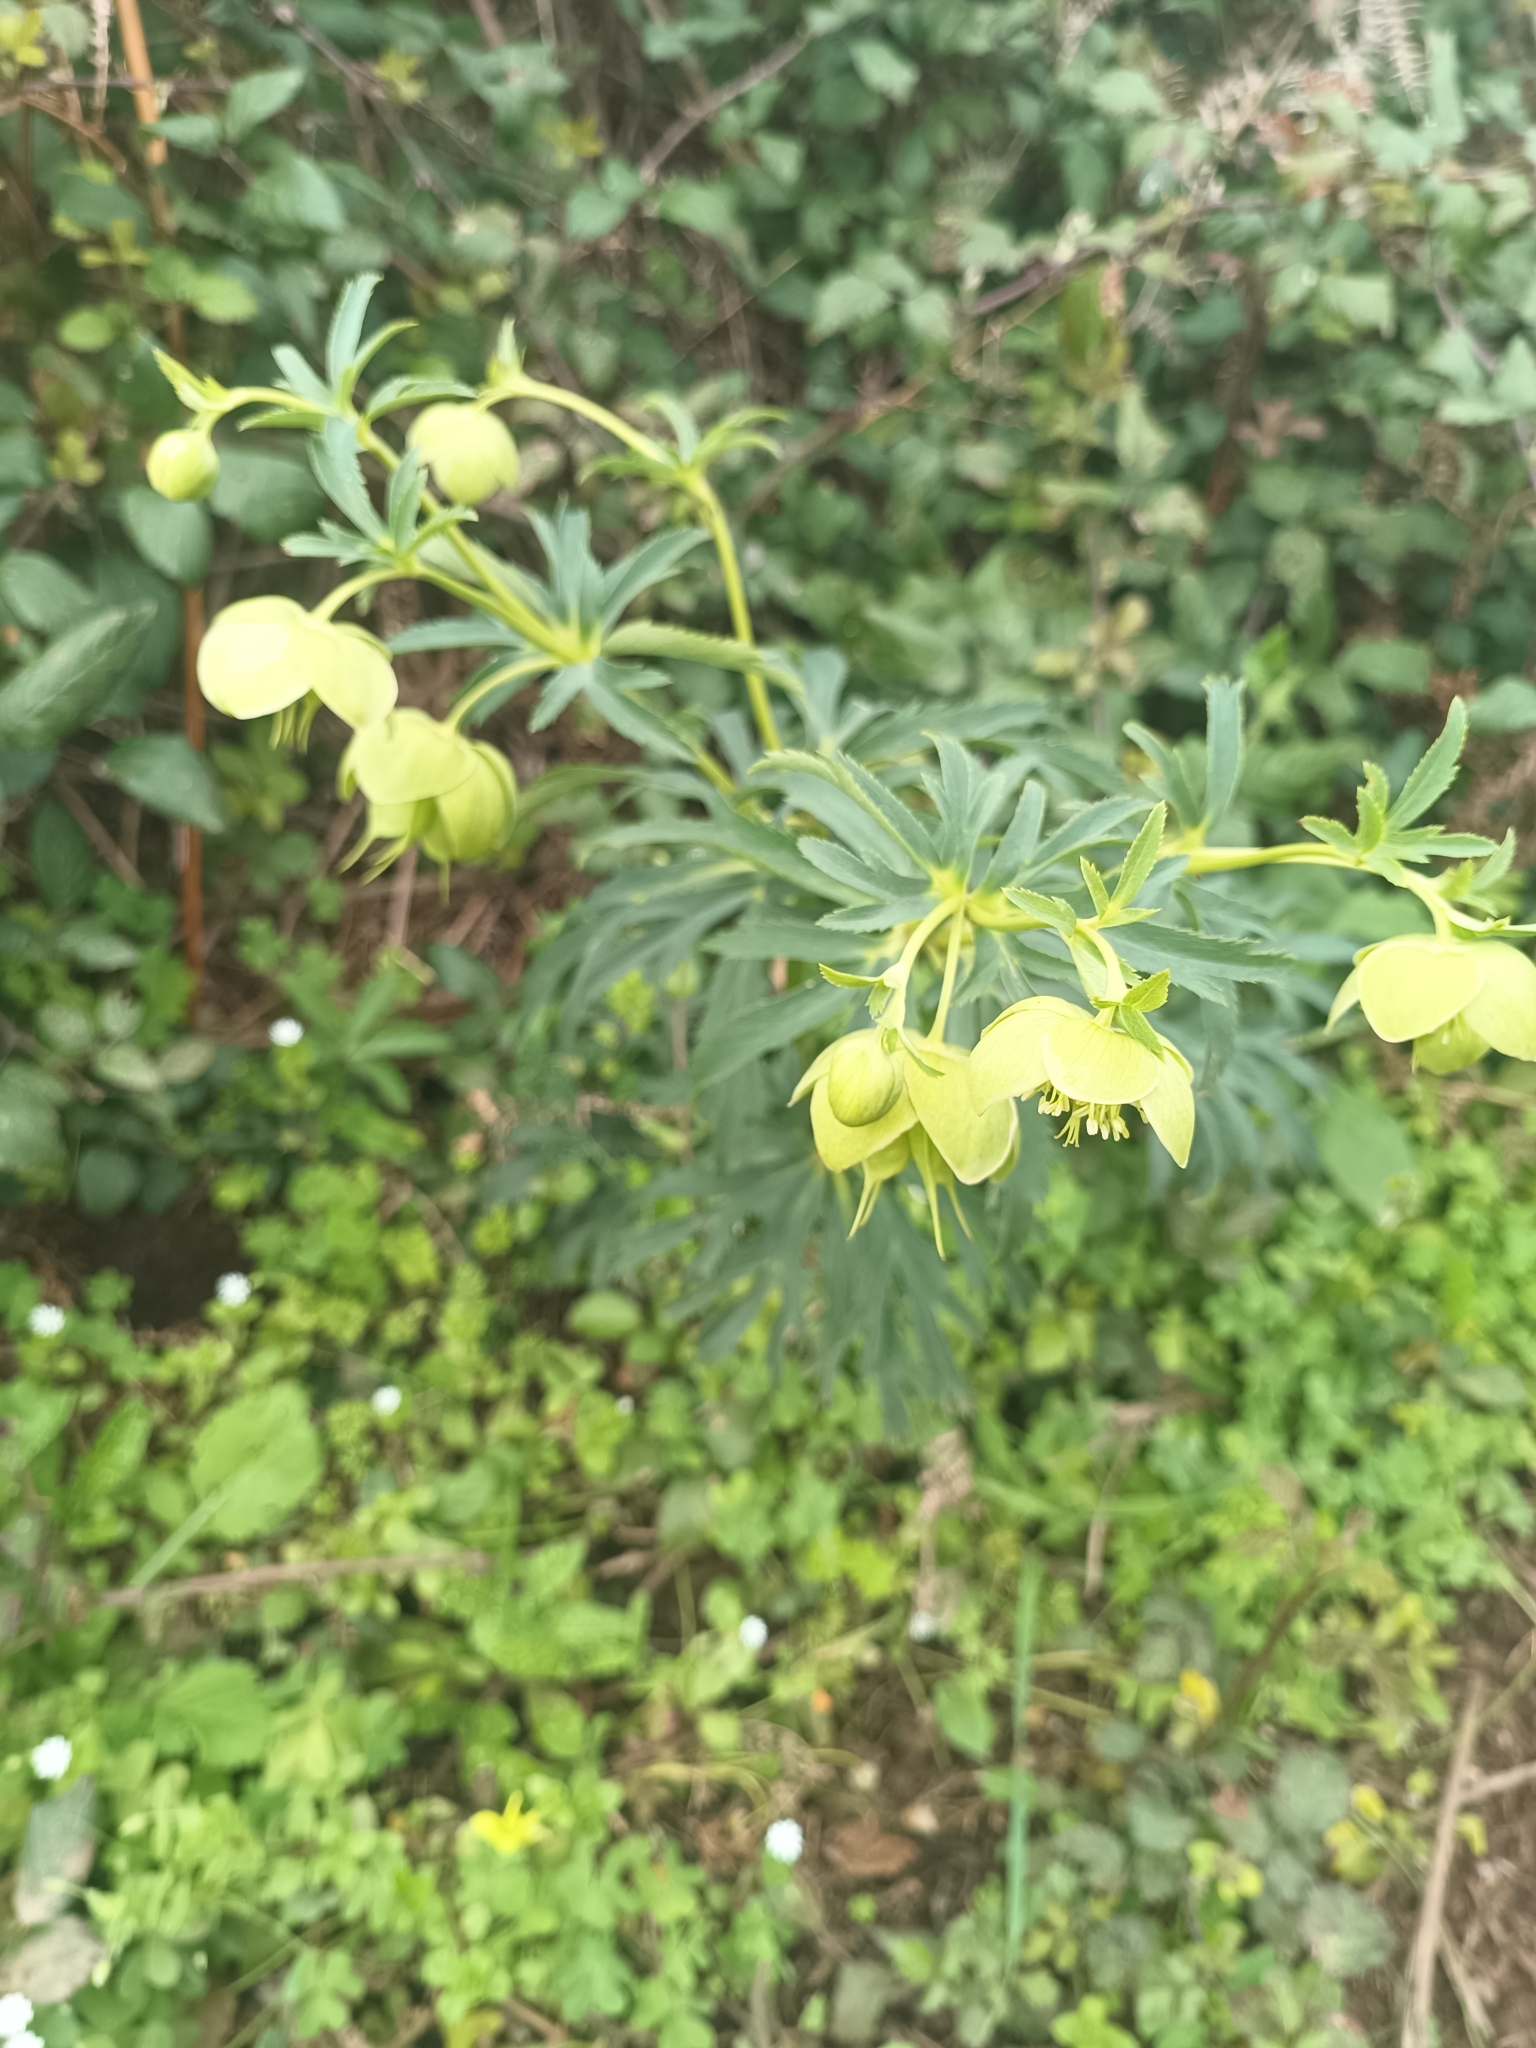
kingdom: Plantae
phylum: Tracheophyta
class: Magnoliopsida
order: Ranunculales
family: Ranunculaceae
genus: Helleborus
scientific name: Helleborus bocconei
